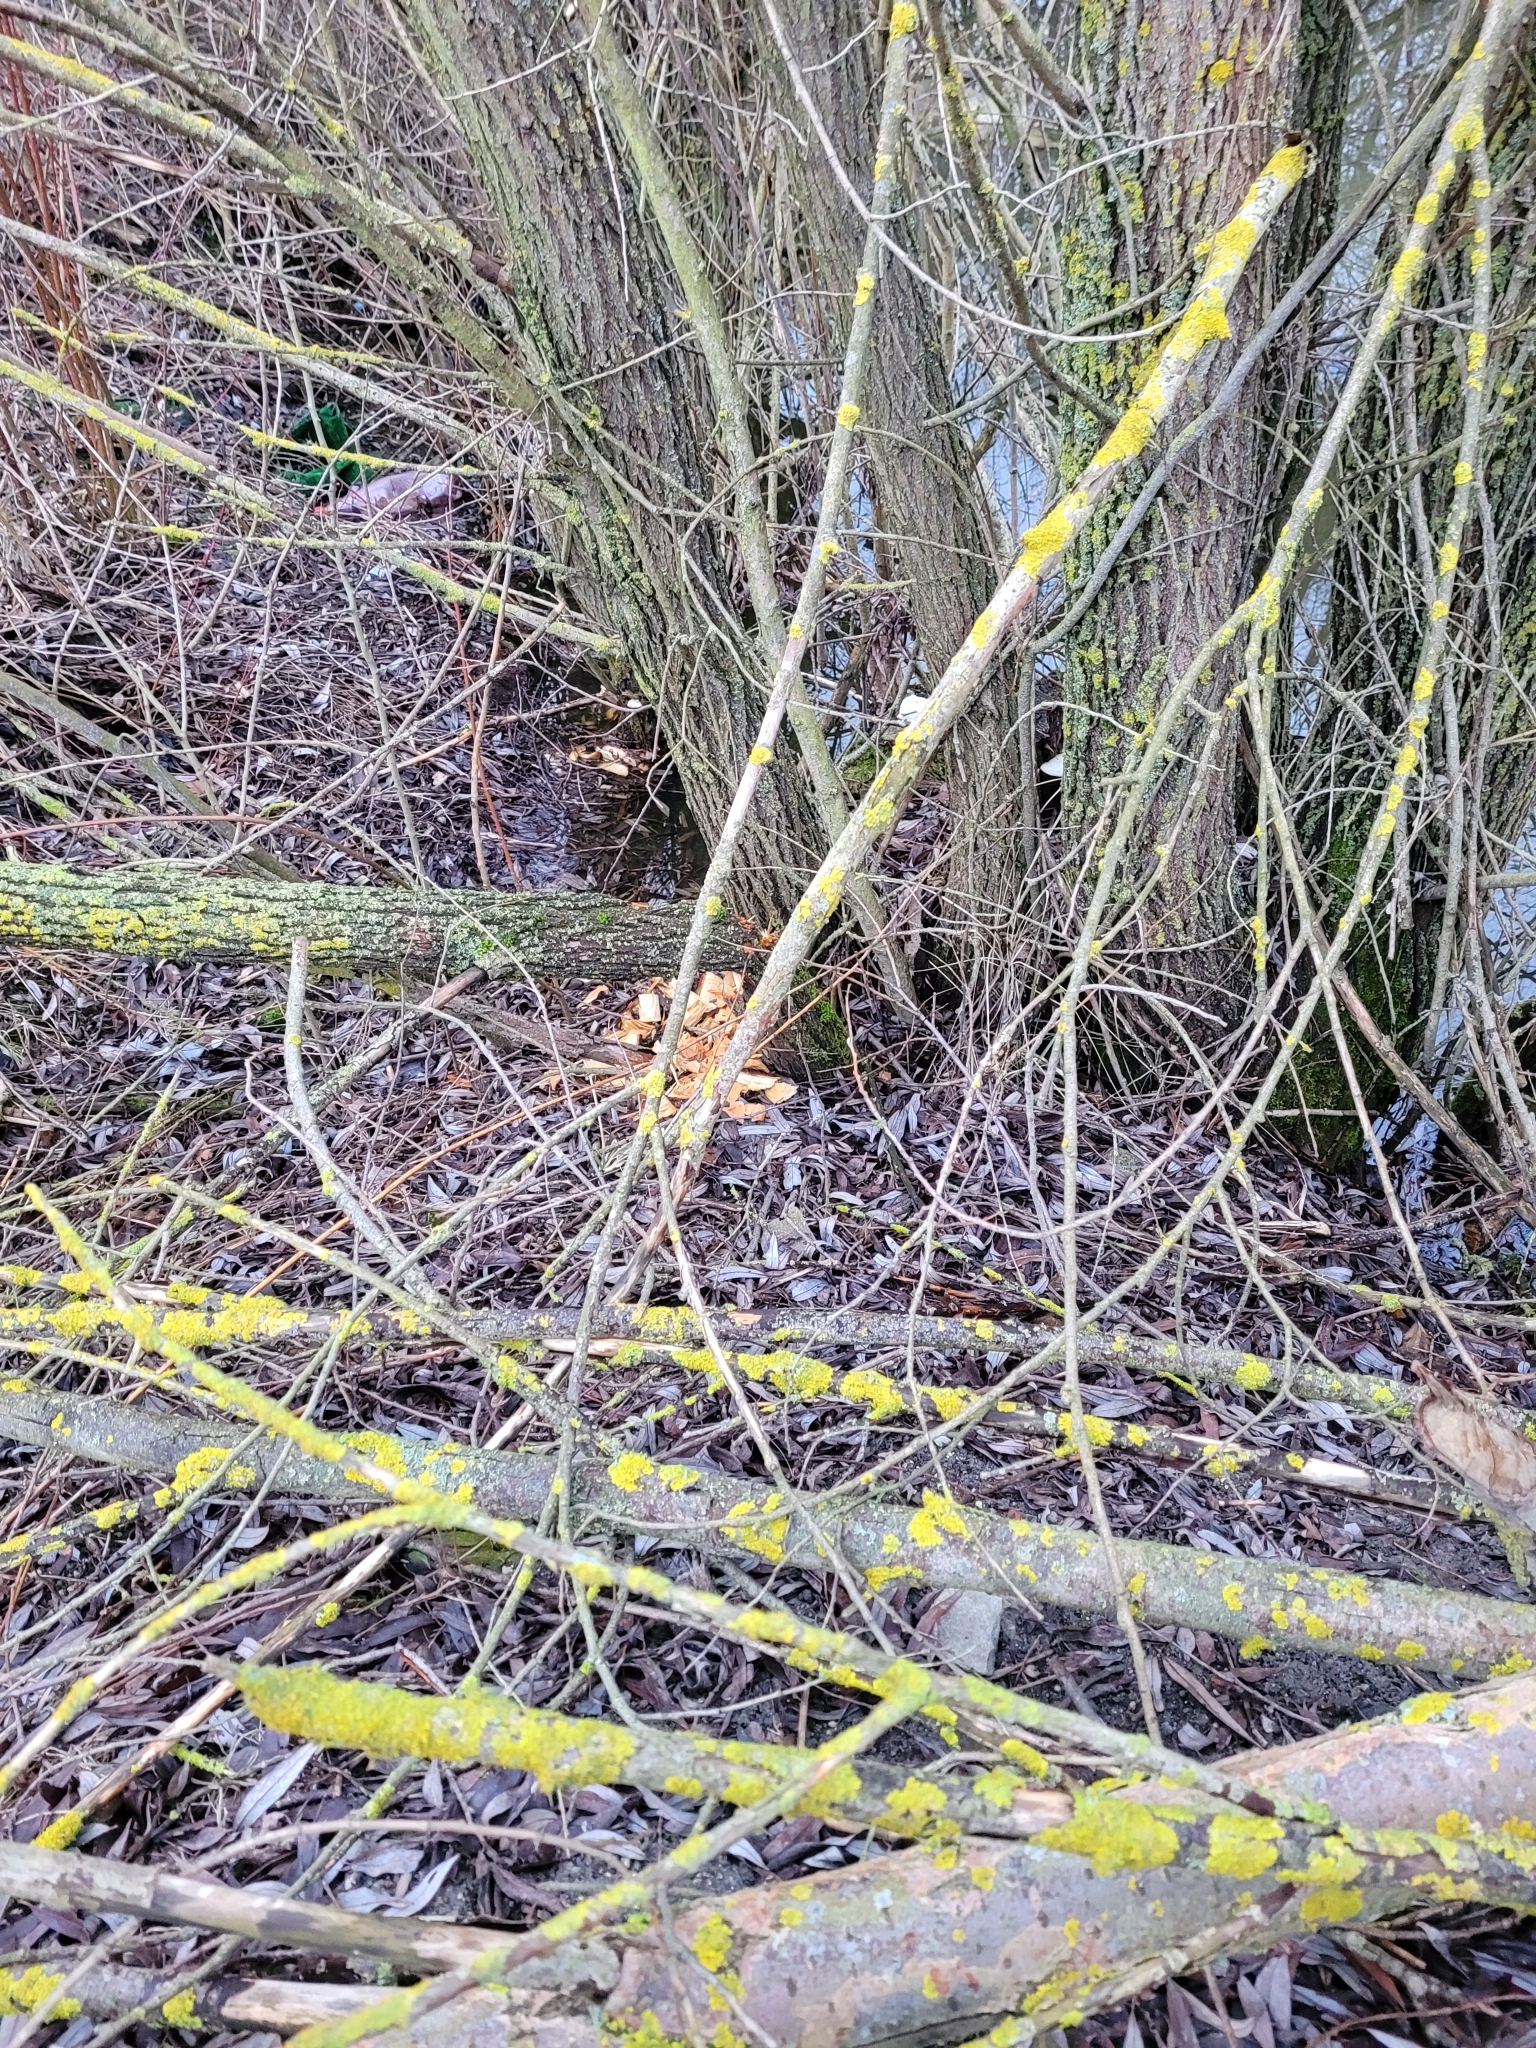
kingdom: Animalia
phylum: Chordata
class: Mammalia
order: Rodentia
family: Castoridae
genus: Castor
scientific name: Castor fiber
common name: Eurasian beaver
